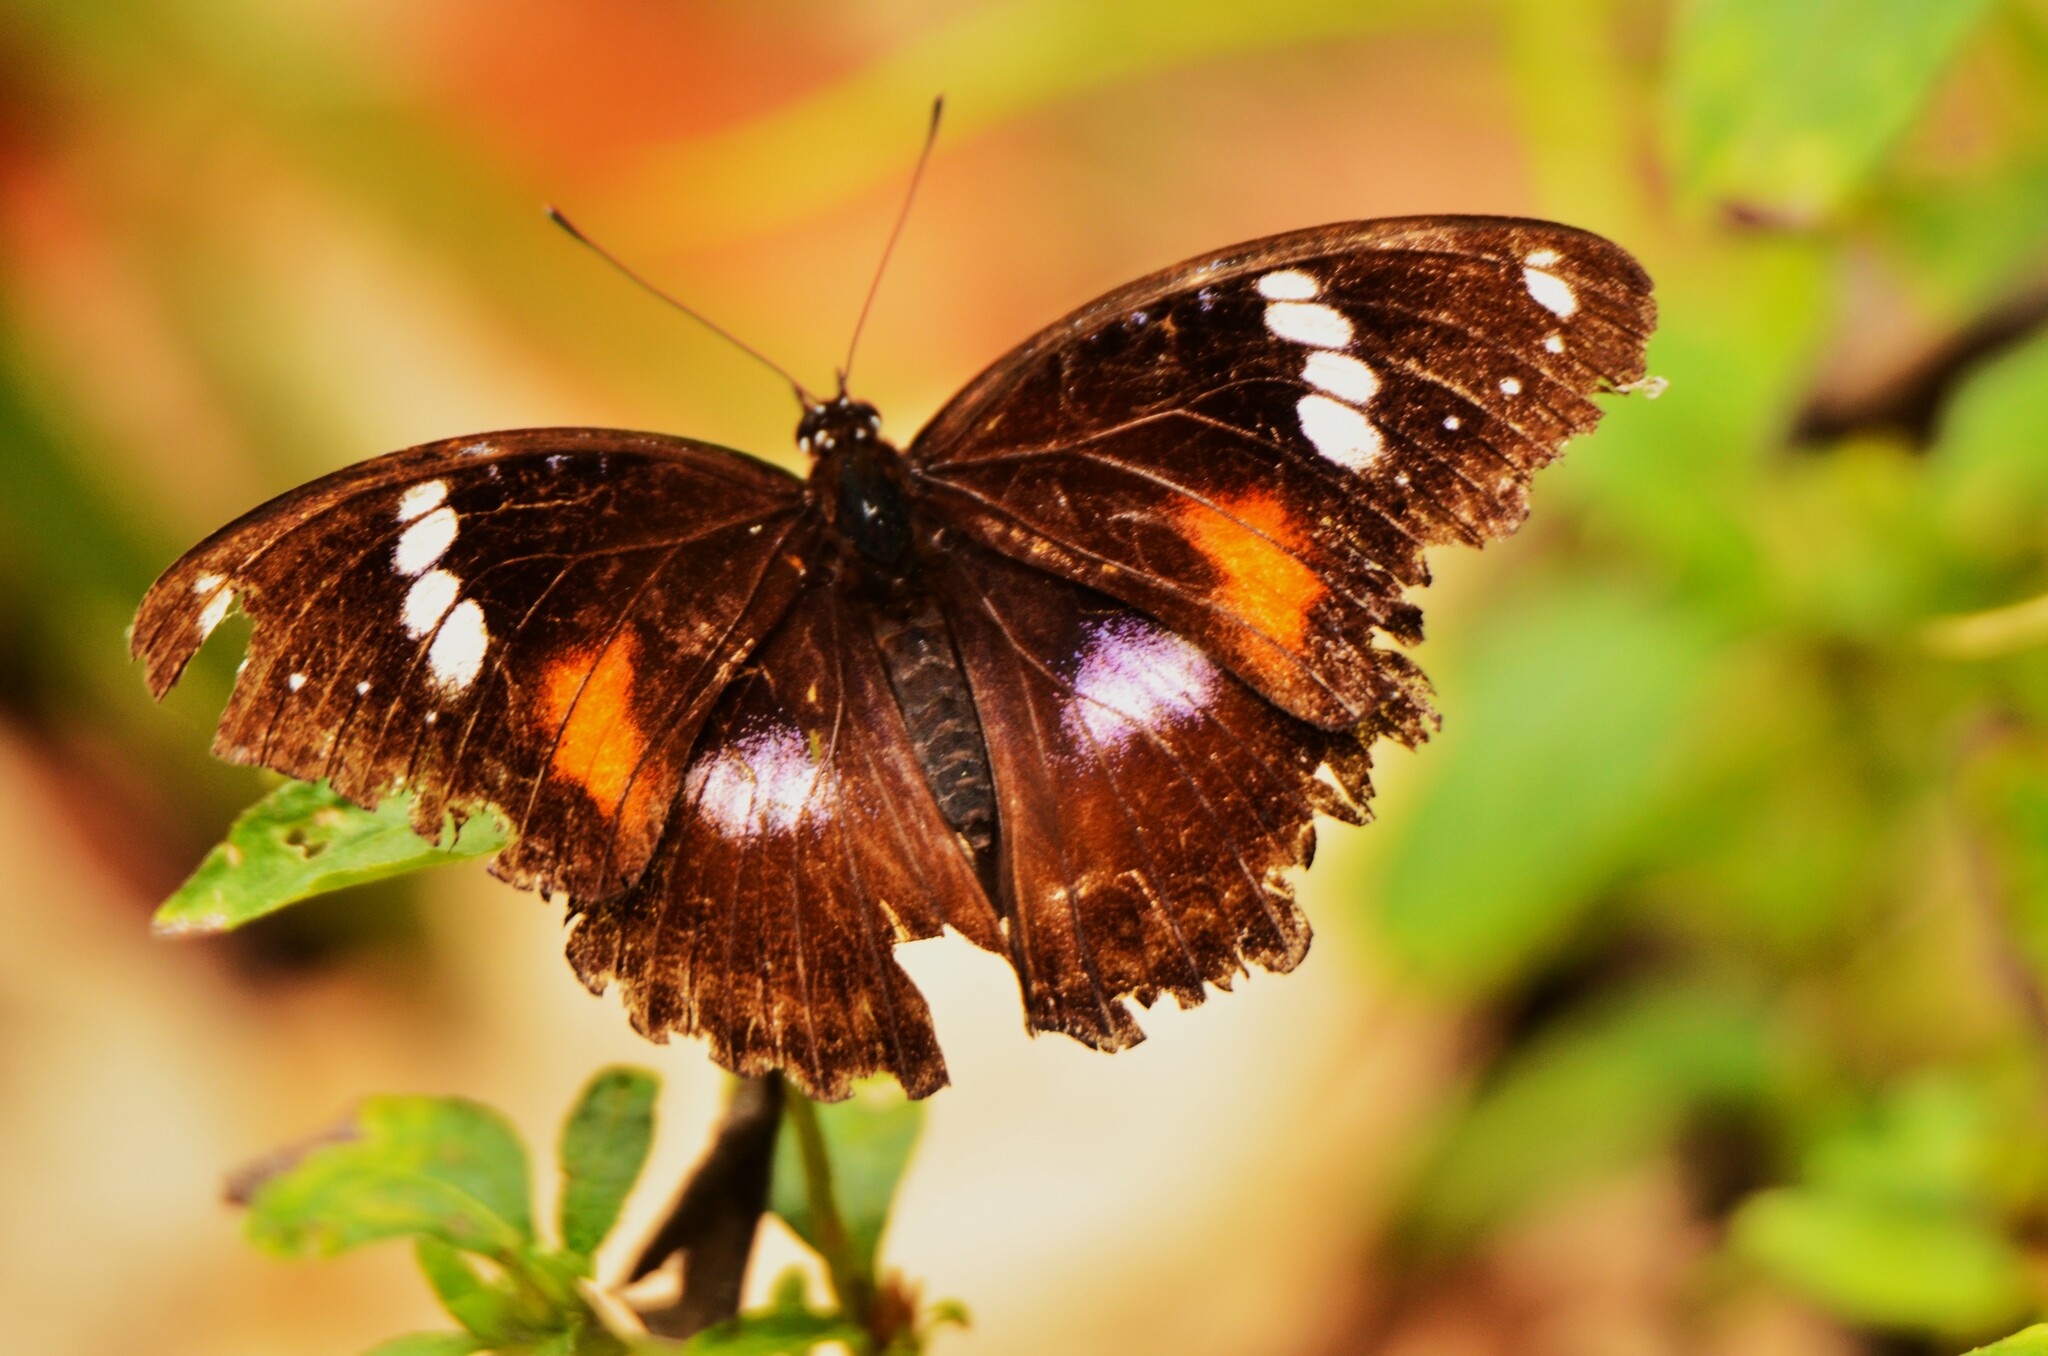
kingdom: Animalia
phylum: Arthropoda
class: Insecta
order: Lepidoptera
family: Nymphalidae
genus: Hypolimnas
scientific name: Hypolimnas bolina
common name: Great eggfly
